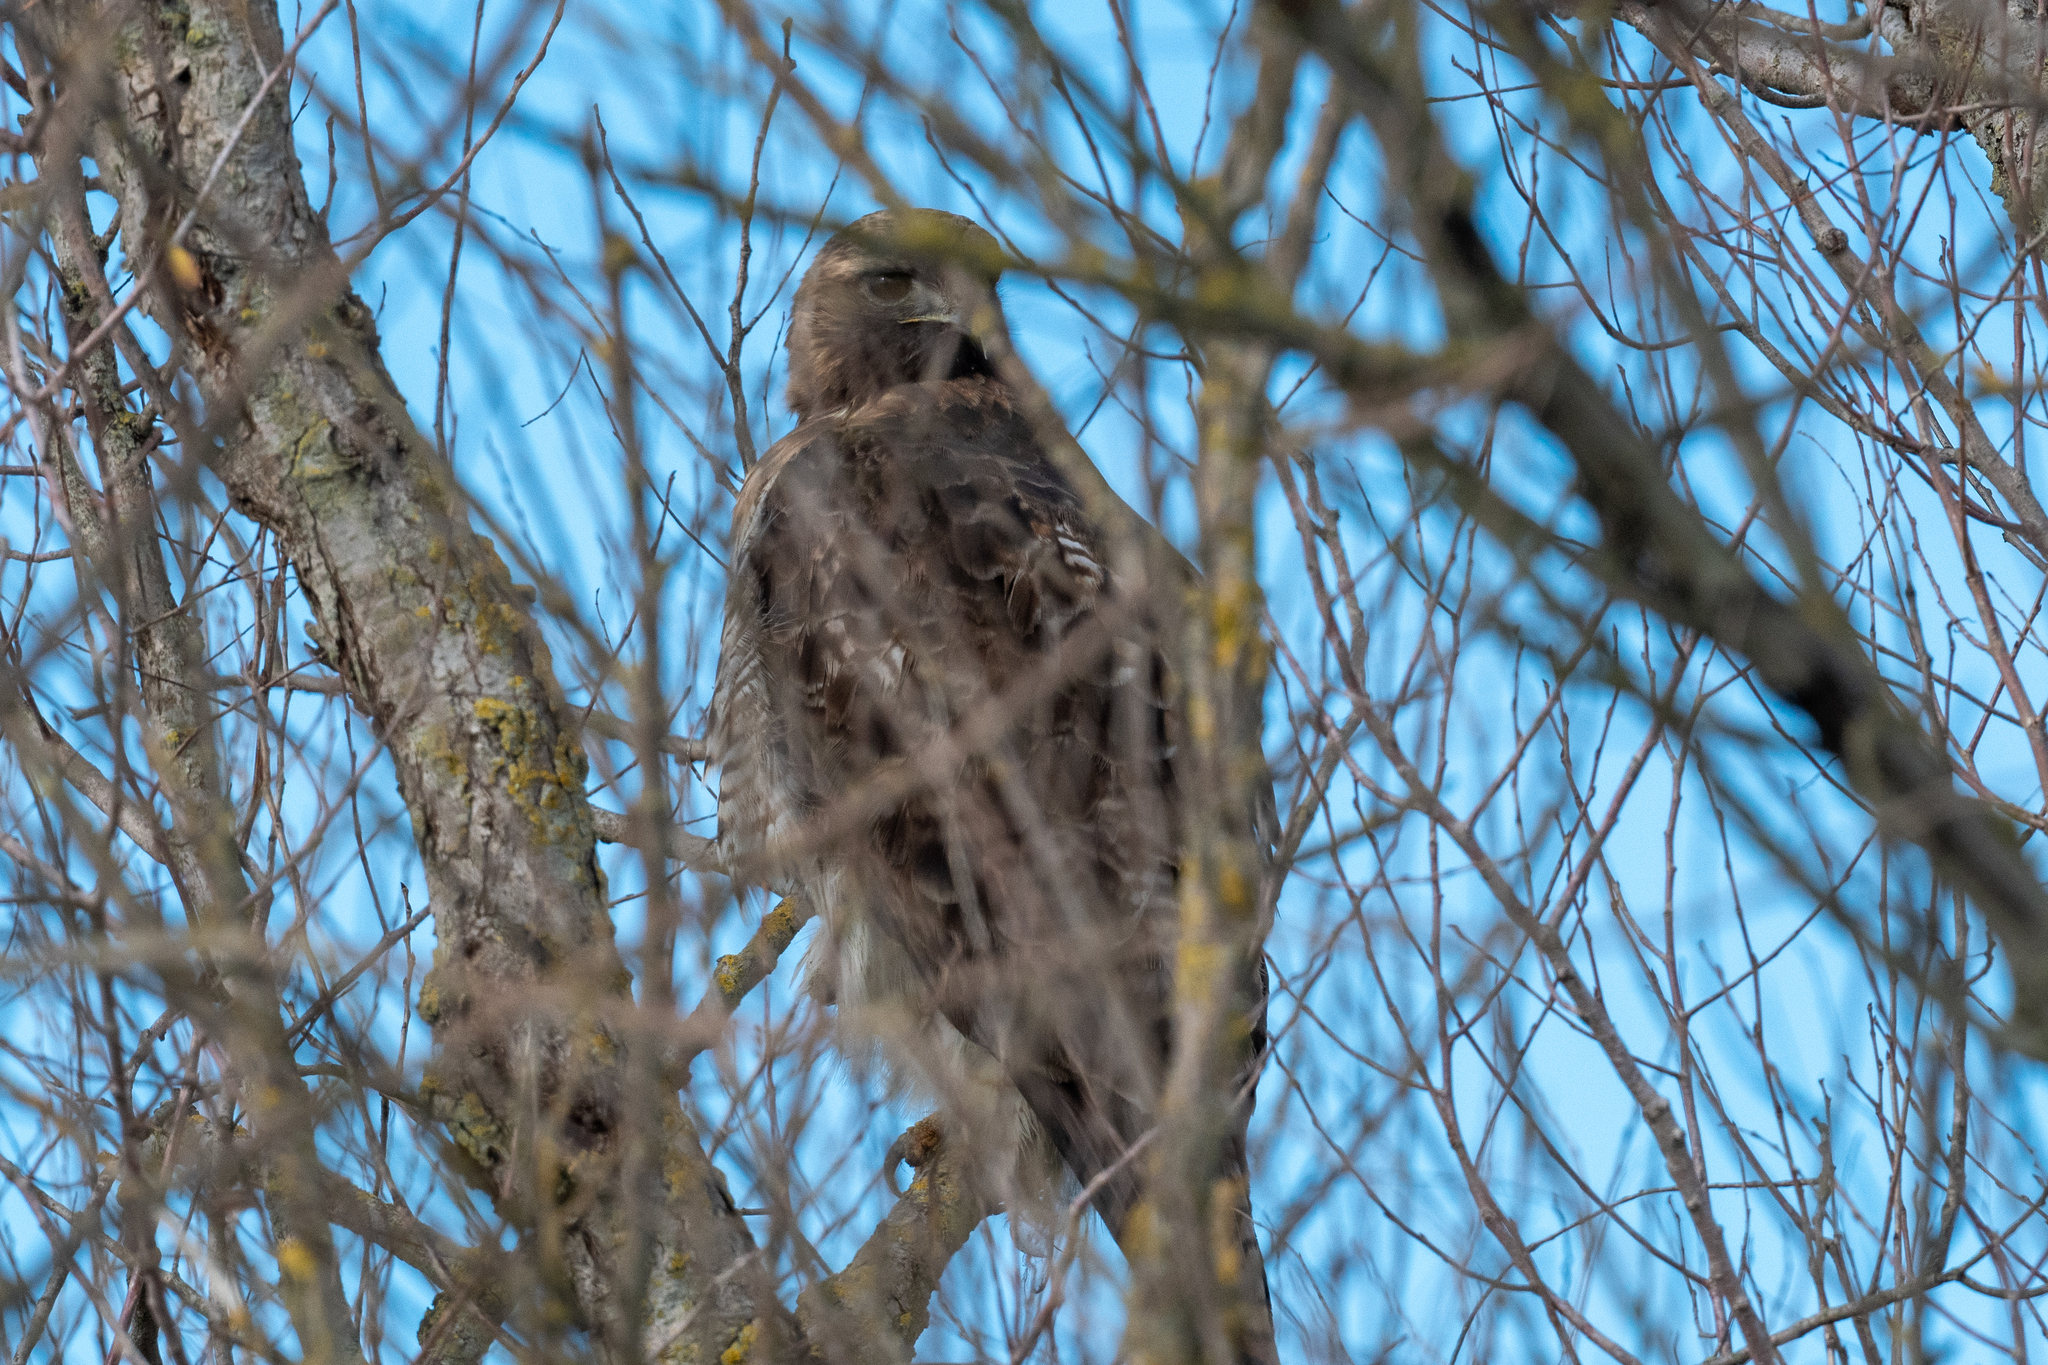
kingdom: Animalia
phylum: Chordata
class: Aves
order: Accipitriformes
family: Accipitridae
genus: Buteo
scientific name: Buteo jamaicensis
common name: Red-tailed hawk
